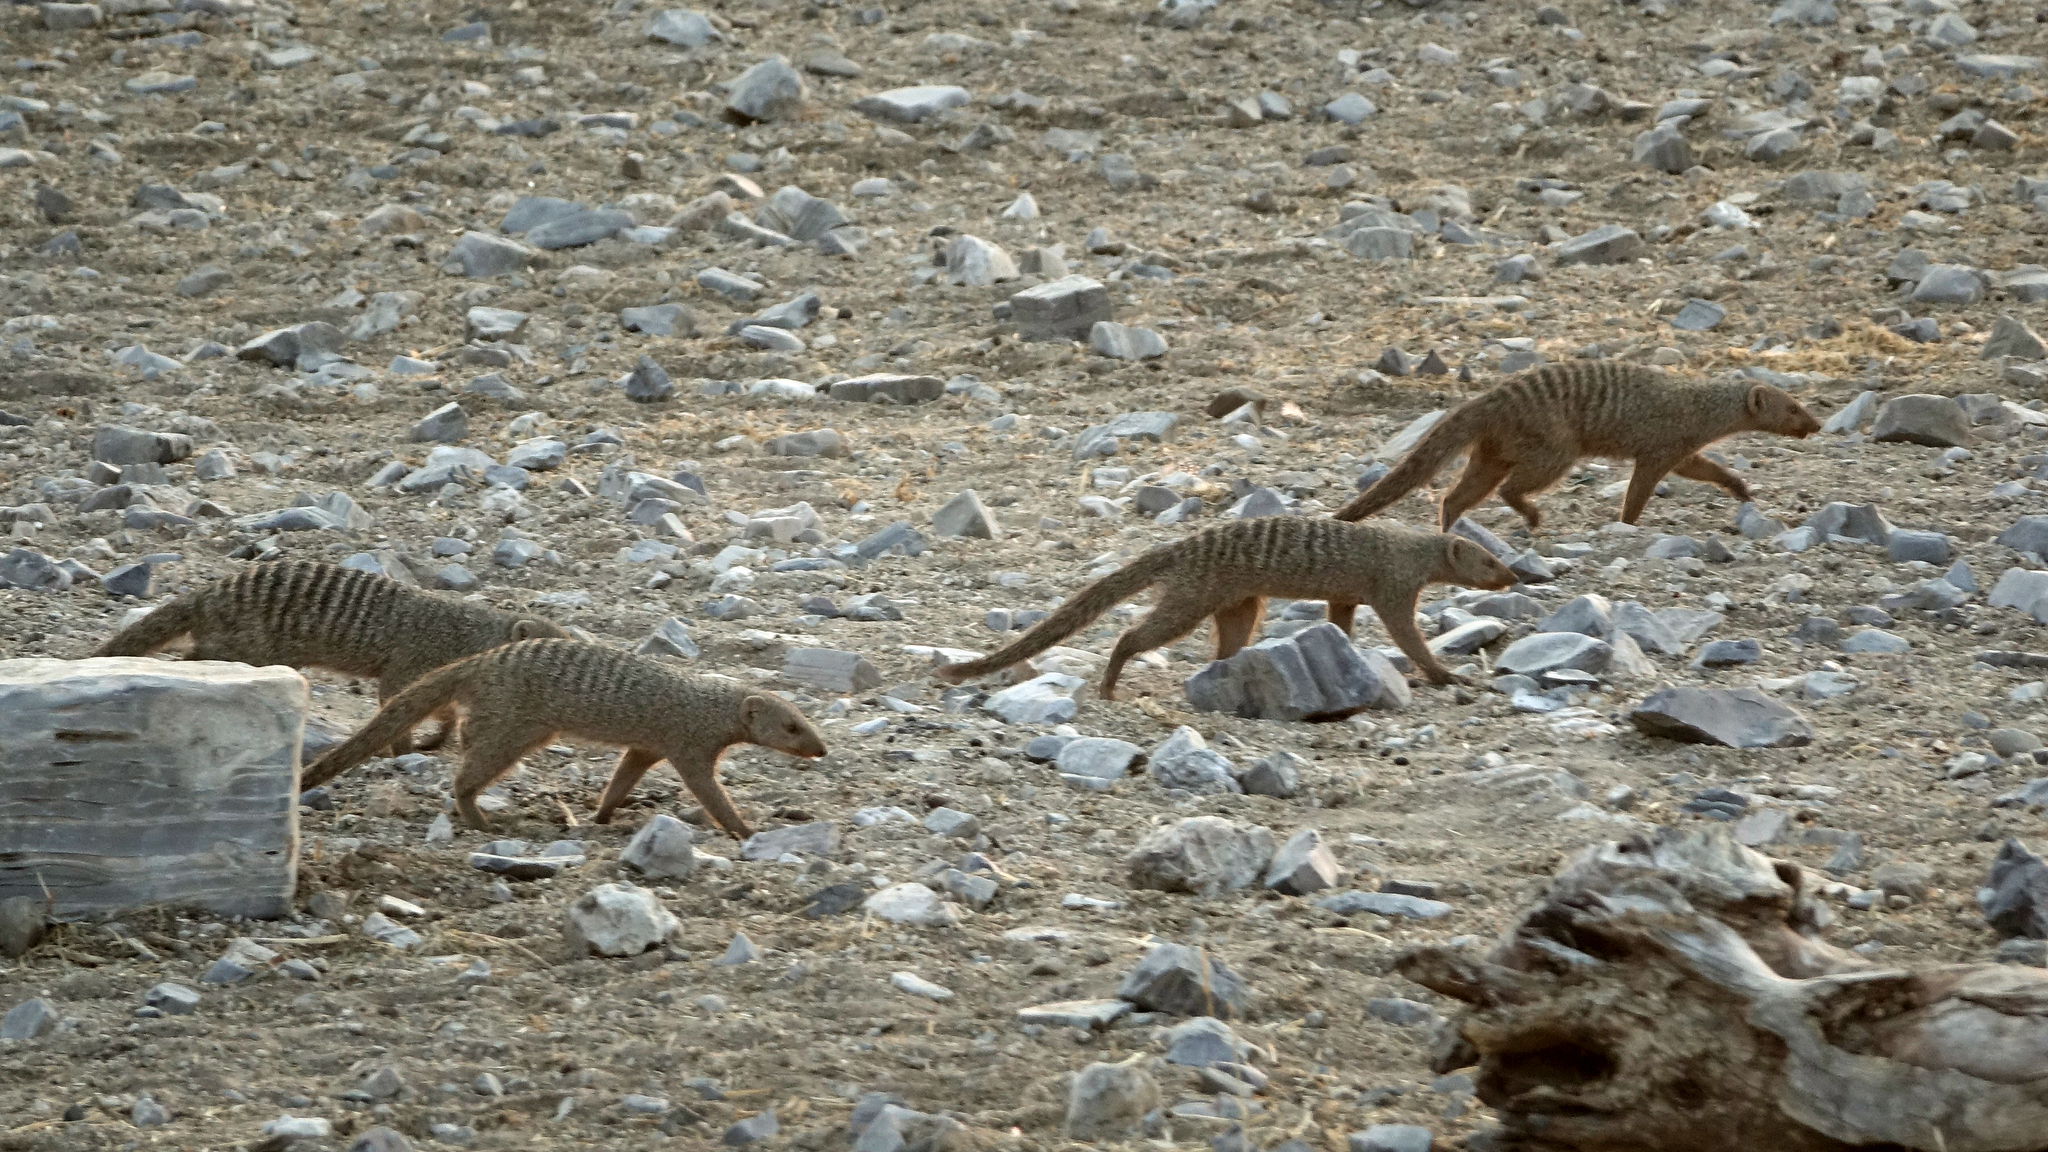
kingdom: Animalia
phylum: Chordata
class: Mammalia
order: Carnivora
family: Herpestidae
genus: Mungos
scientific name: Mungos mungo
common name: Banded mongoose
